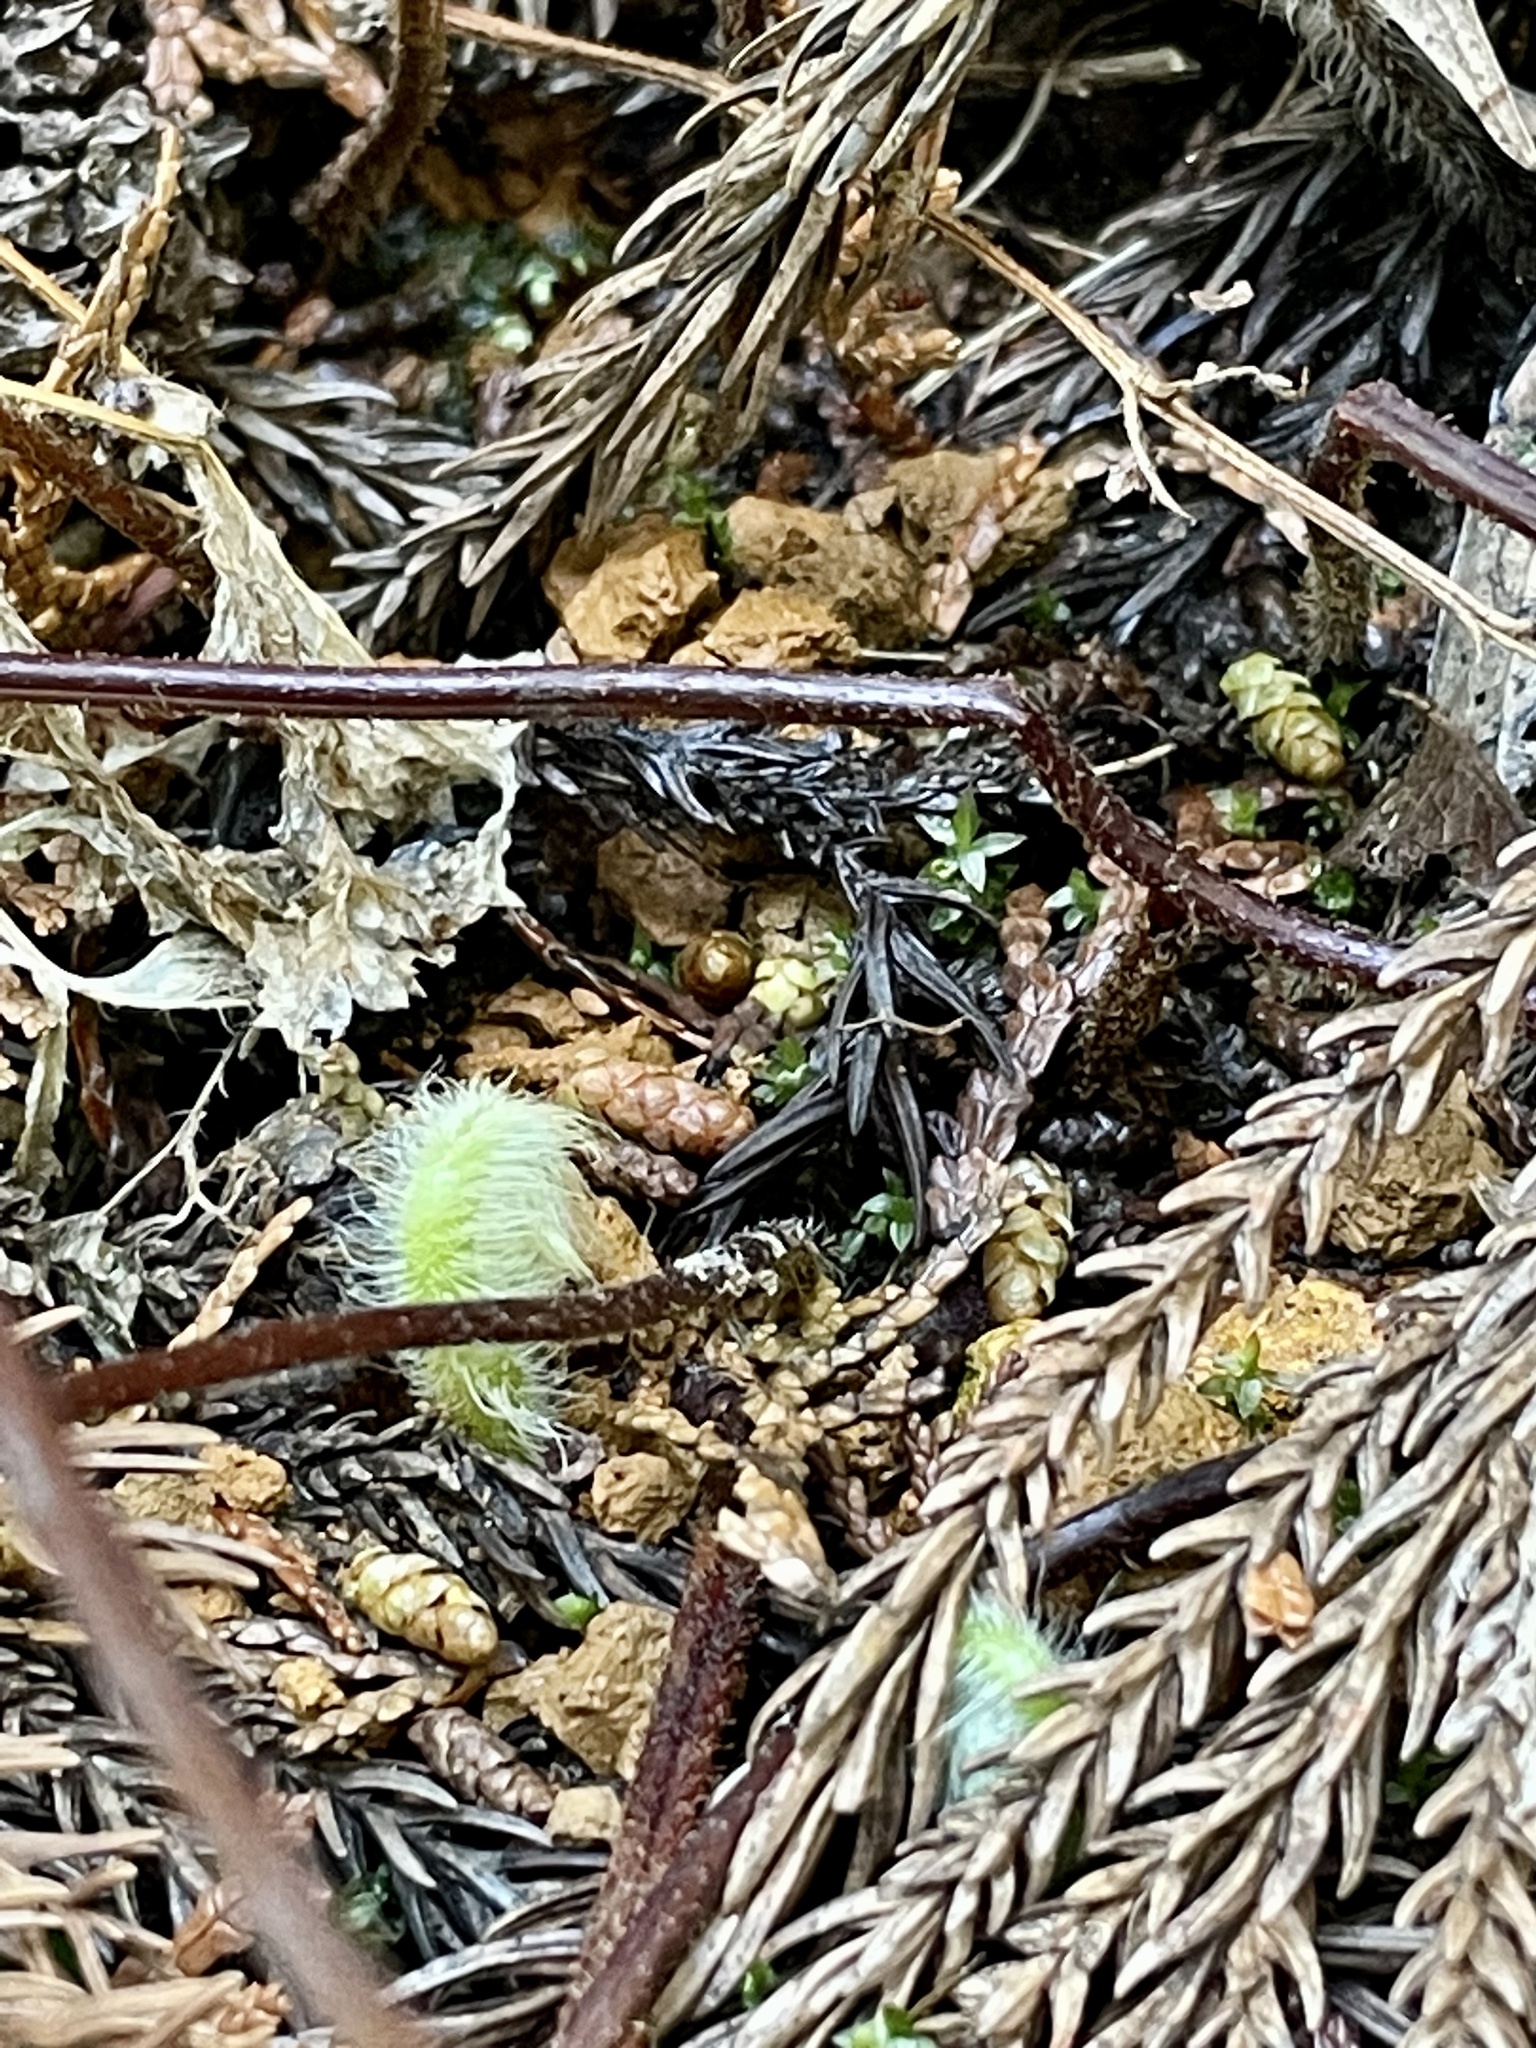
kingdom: Plantae
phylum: Tracheophyta
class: Polypodiopsida
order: Polypodiales
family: Dennstaedtiaceae
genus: Sitobolium
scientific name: Sitobolium zeylanicum
